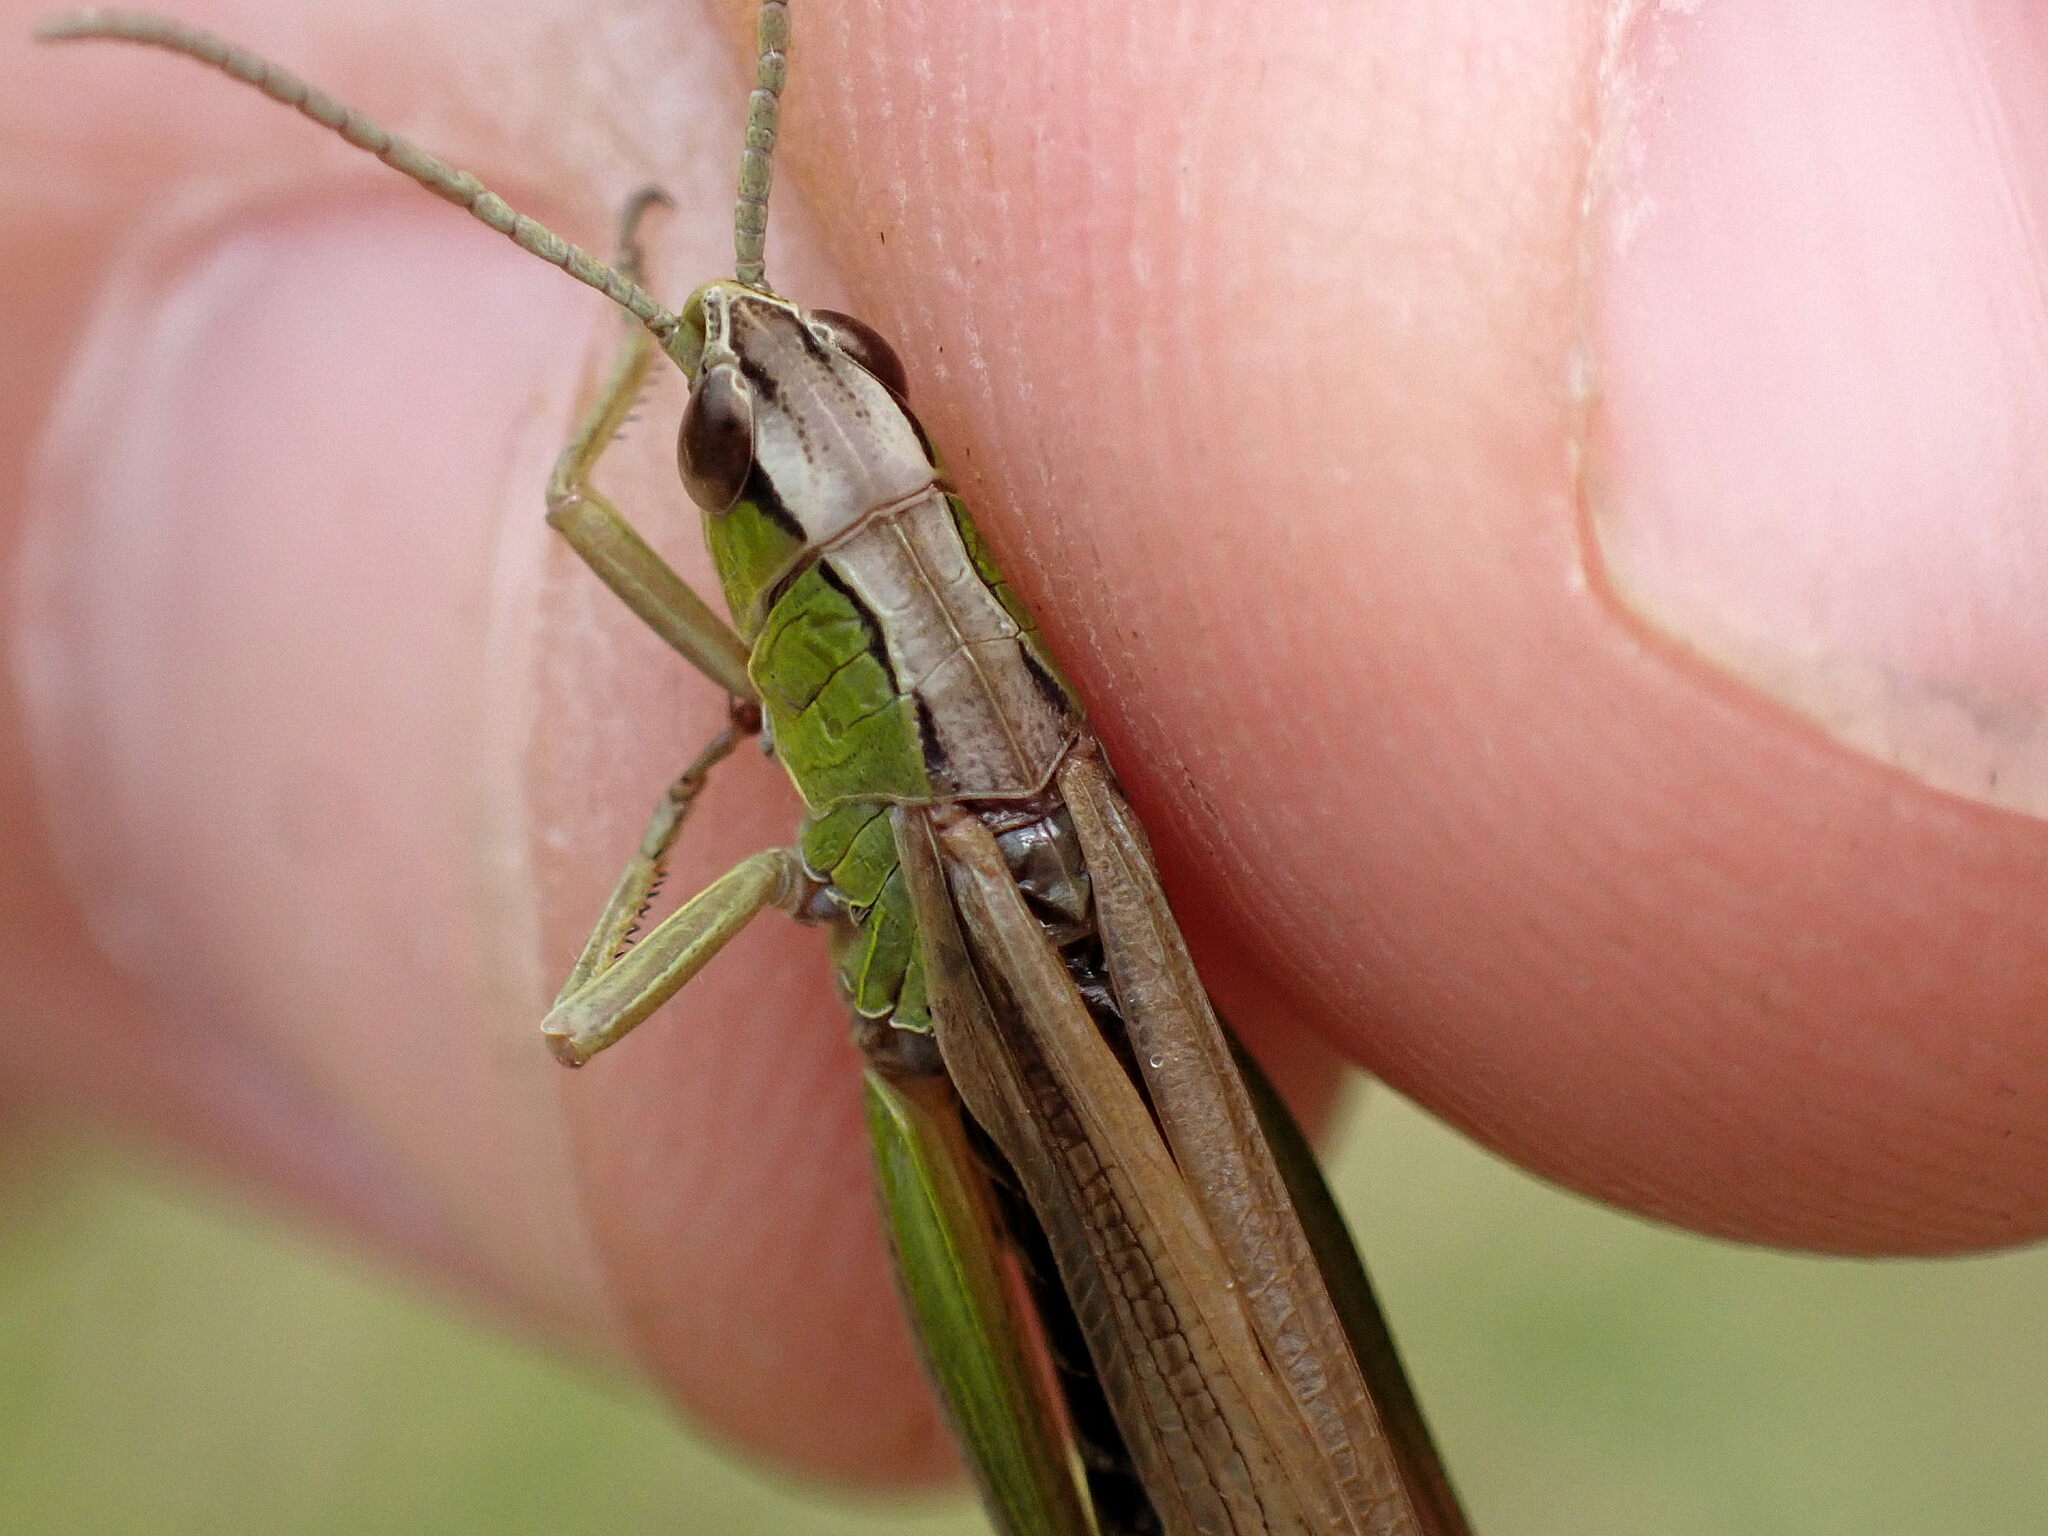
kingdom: Animalia
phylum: Arthropoda
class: Insecta
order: Orthoptera
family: Acrididae
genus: Pseudochorthippus
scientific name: Pseudochorthippus parallelus
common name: Meadow grasshopper
